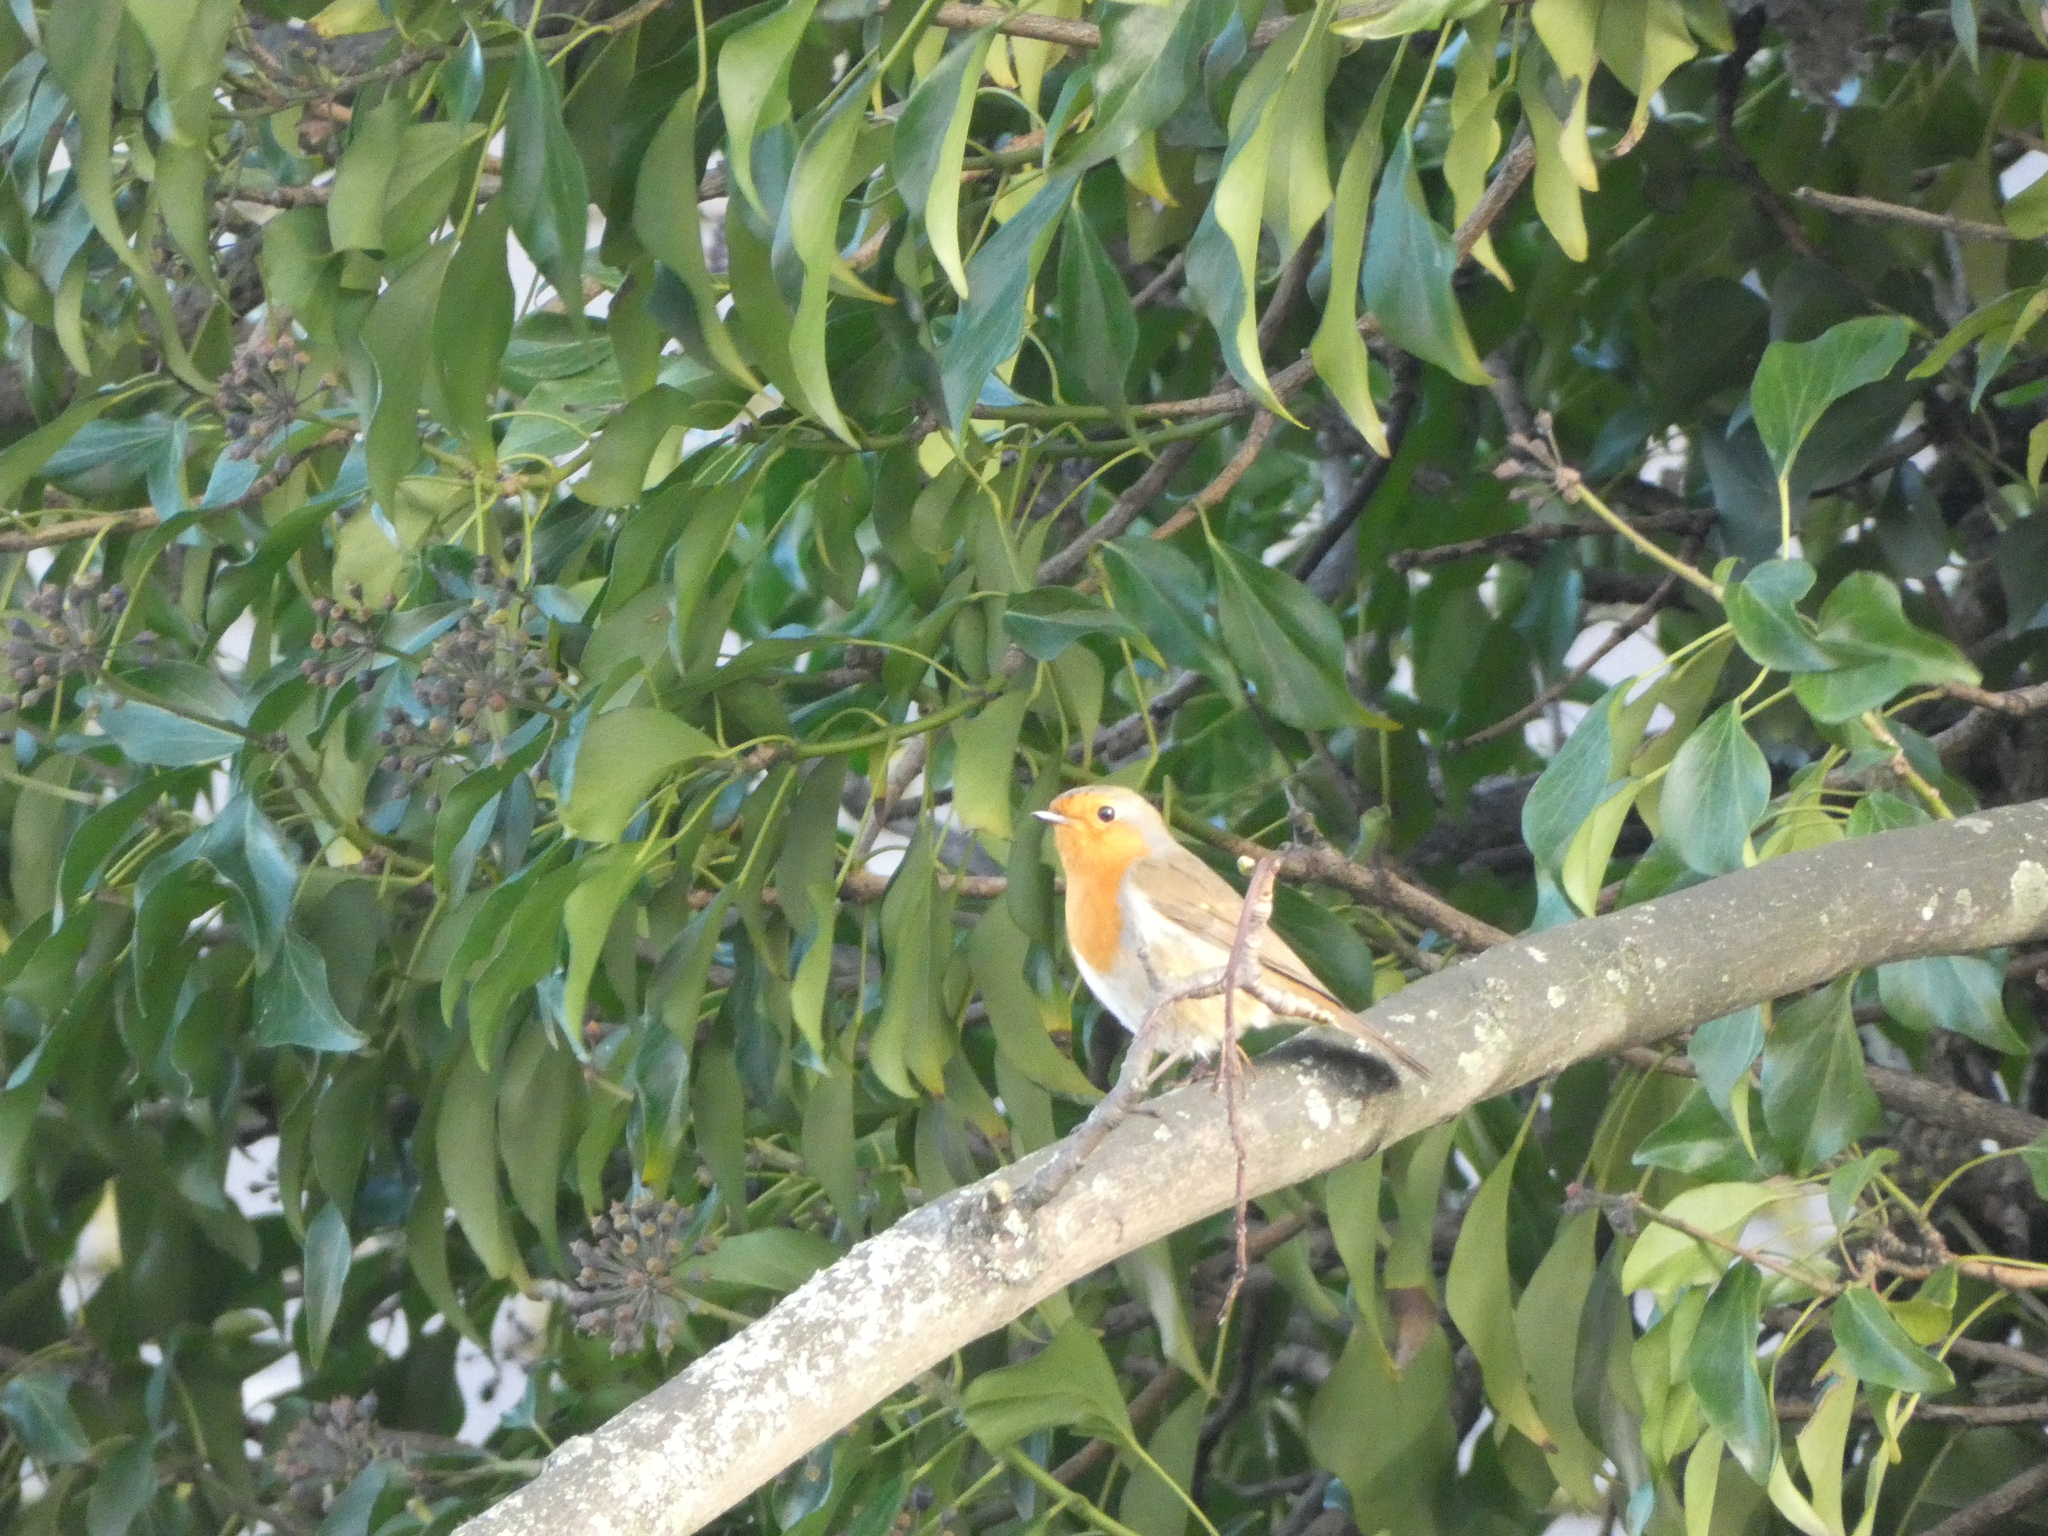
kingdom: Animalia
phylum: Chordata
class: Aves
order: Passeriformes
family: Muscicapidae
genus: Erithacus
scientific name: Erithacus rubecula
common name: European robin
